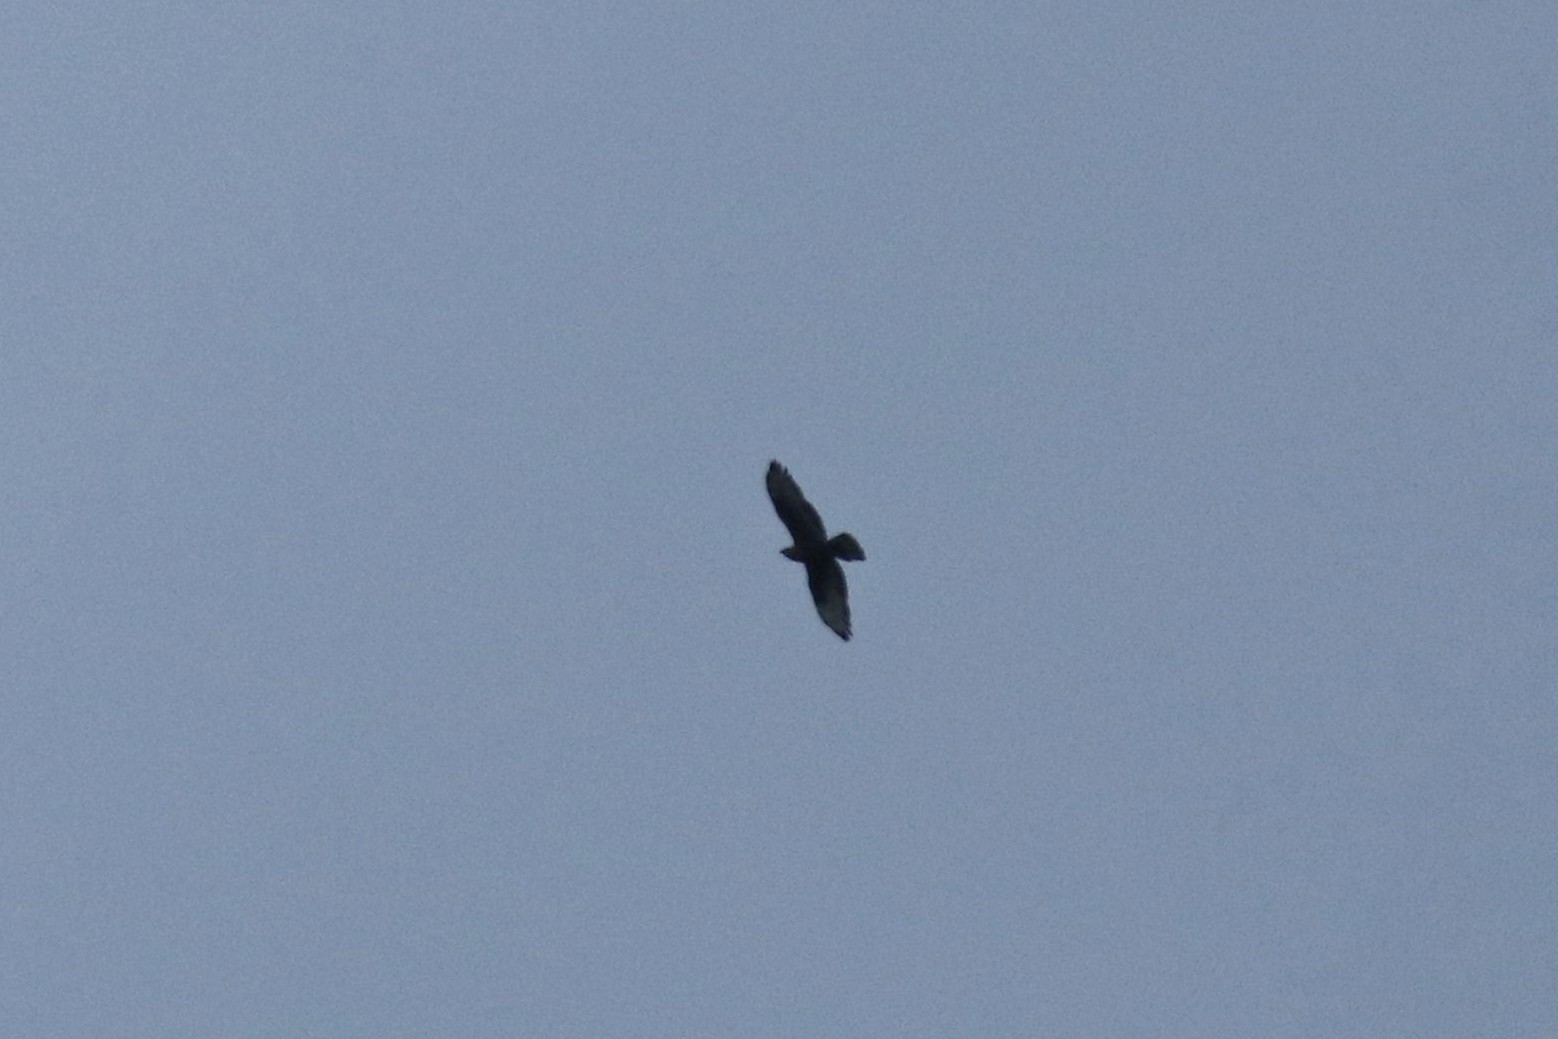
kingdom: Animalia
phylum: Chordata
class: Aves
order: Accipitriformes
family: Accipitridae
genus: Buteo
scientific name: Buteo buteo
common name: Common buzzard
